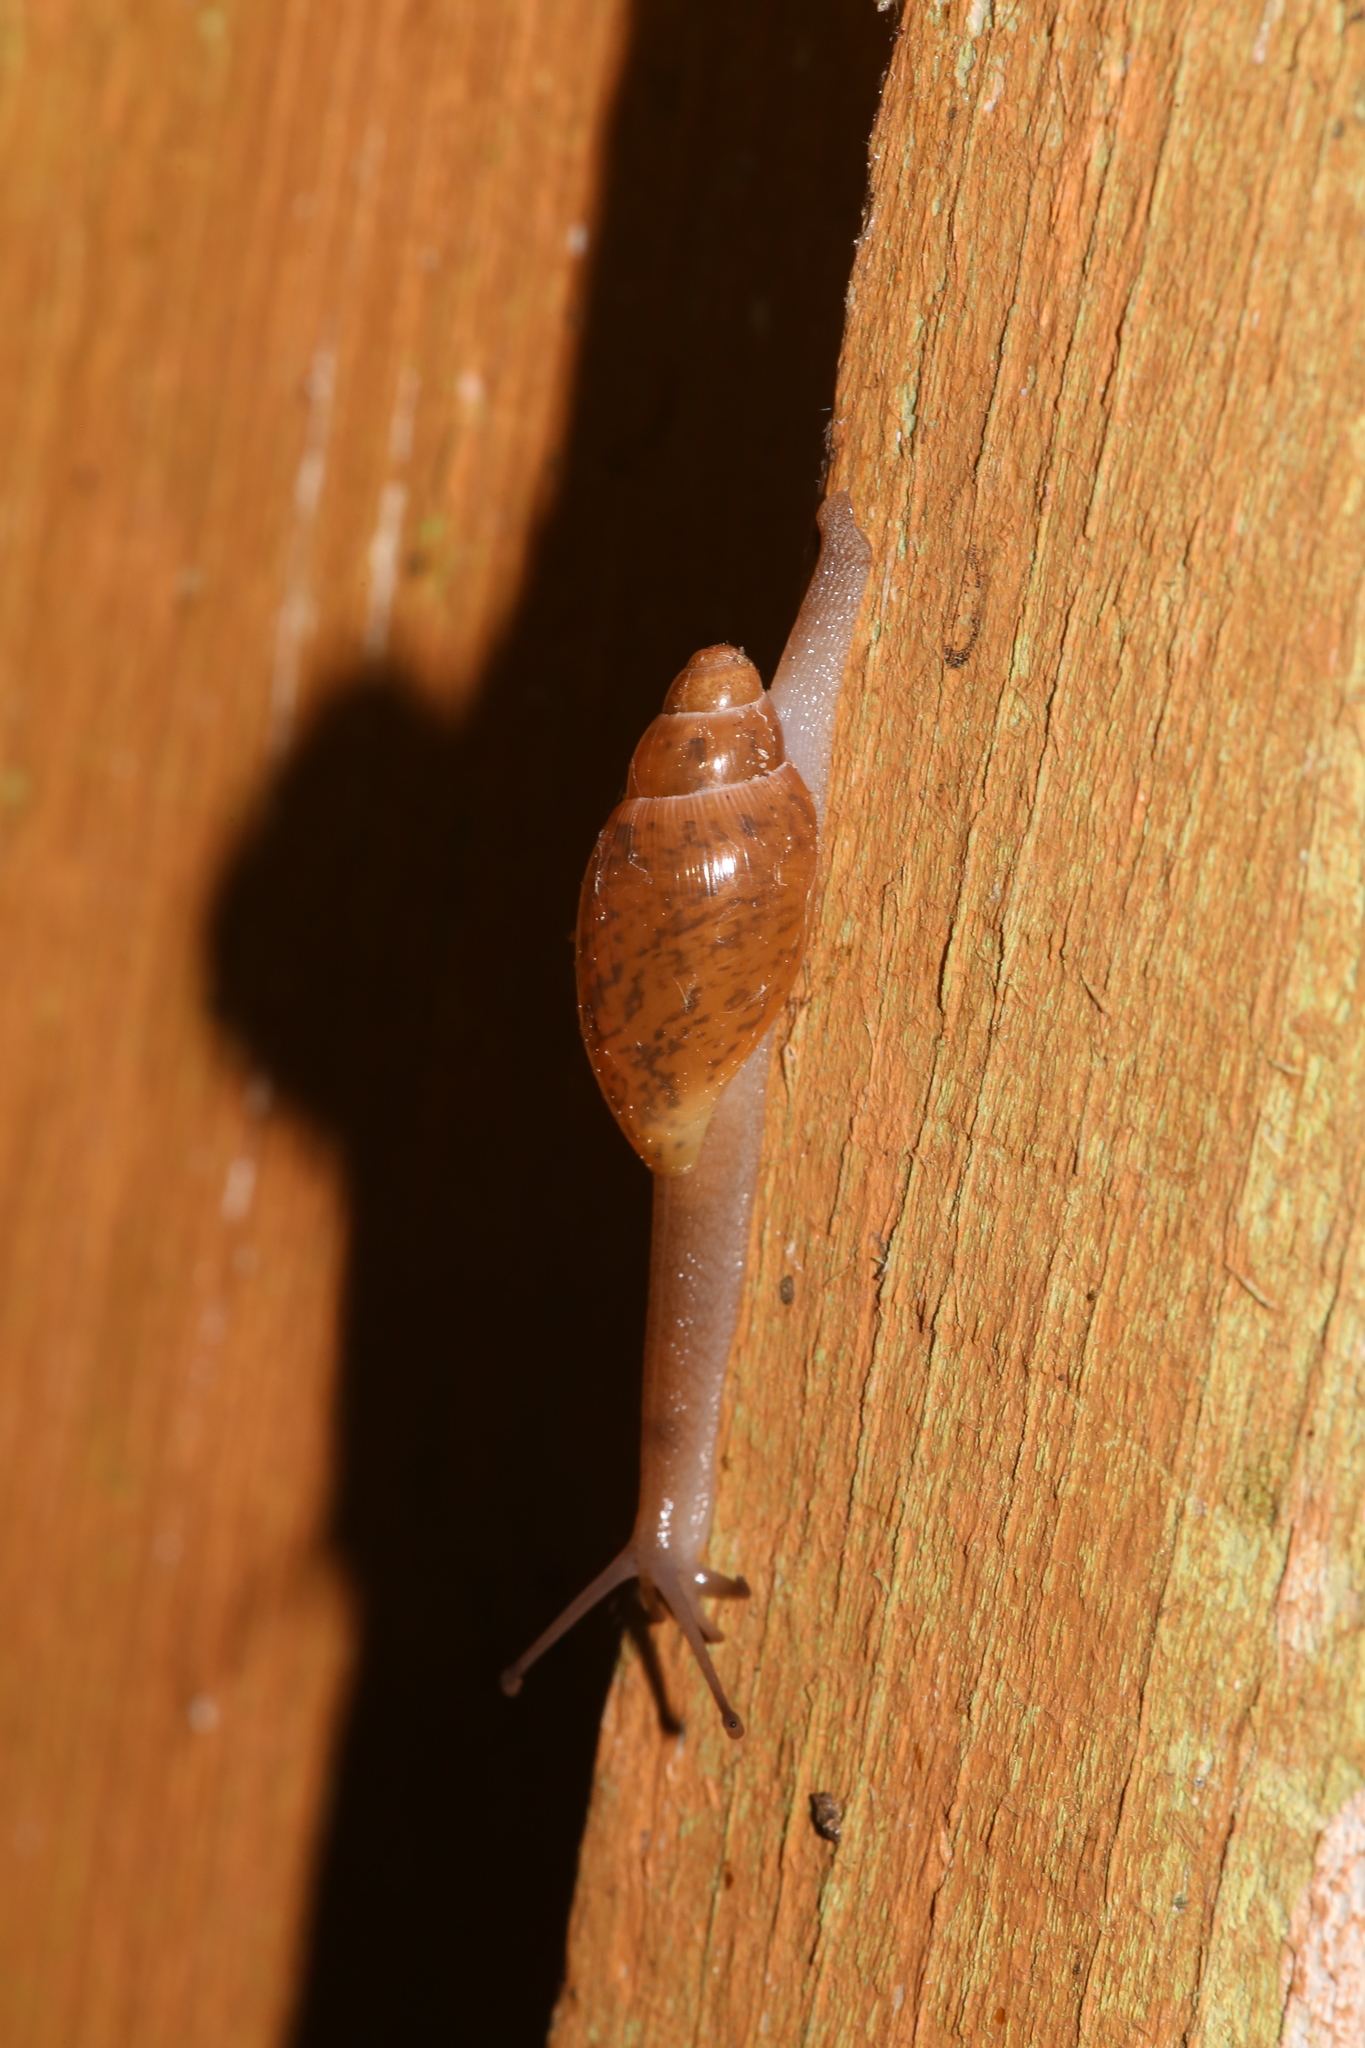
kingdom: Animalia
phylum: Mollusca
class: Gastropoda
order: Stylommatophora
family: Spiraxidae
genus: Euglandina
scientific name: Euglandina rosea
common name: Rosy wolfsnail
